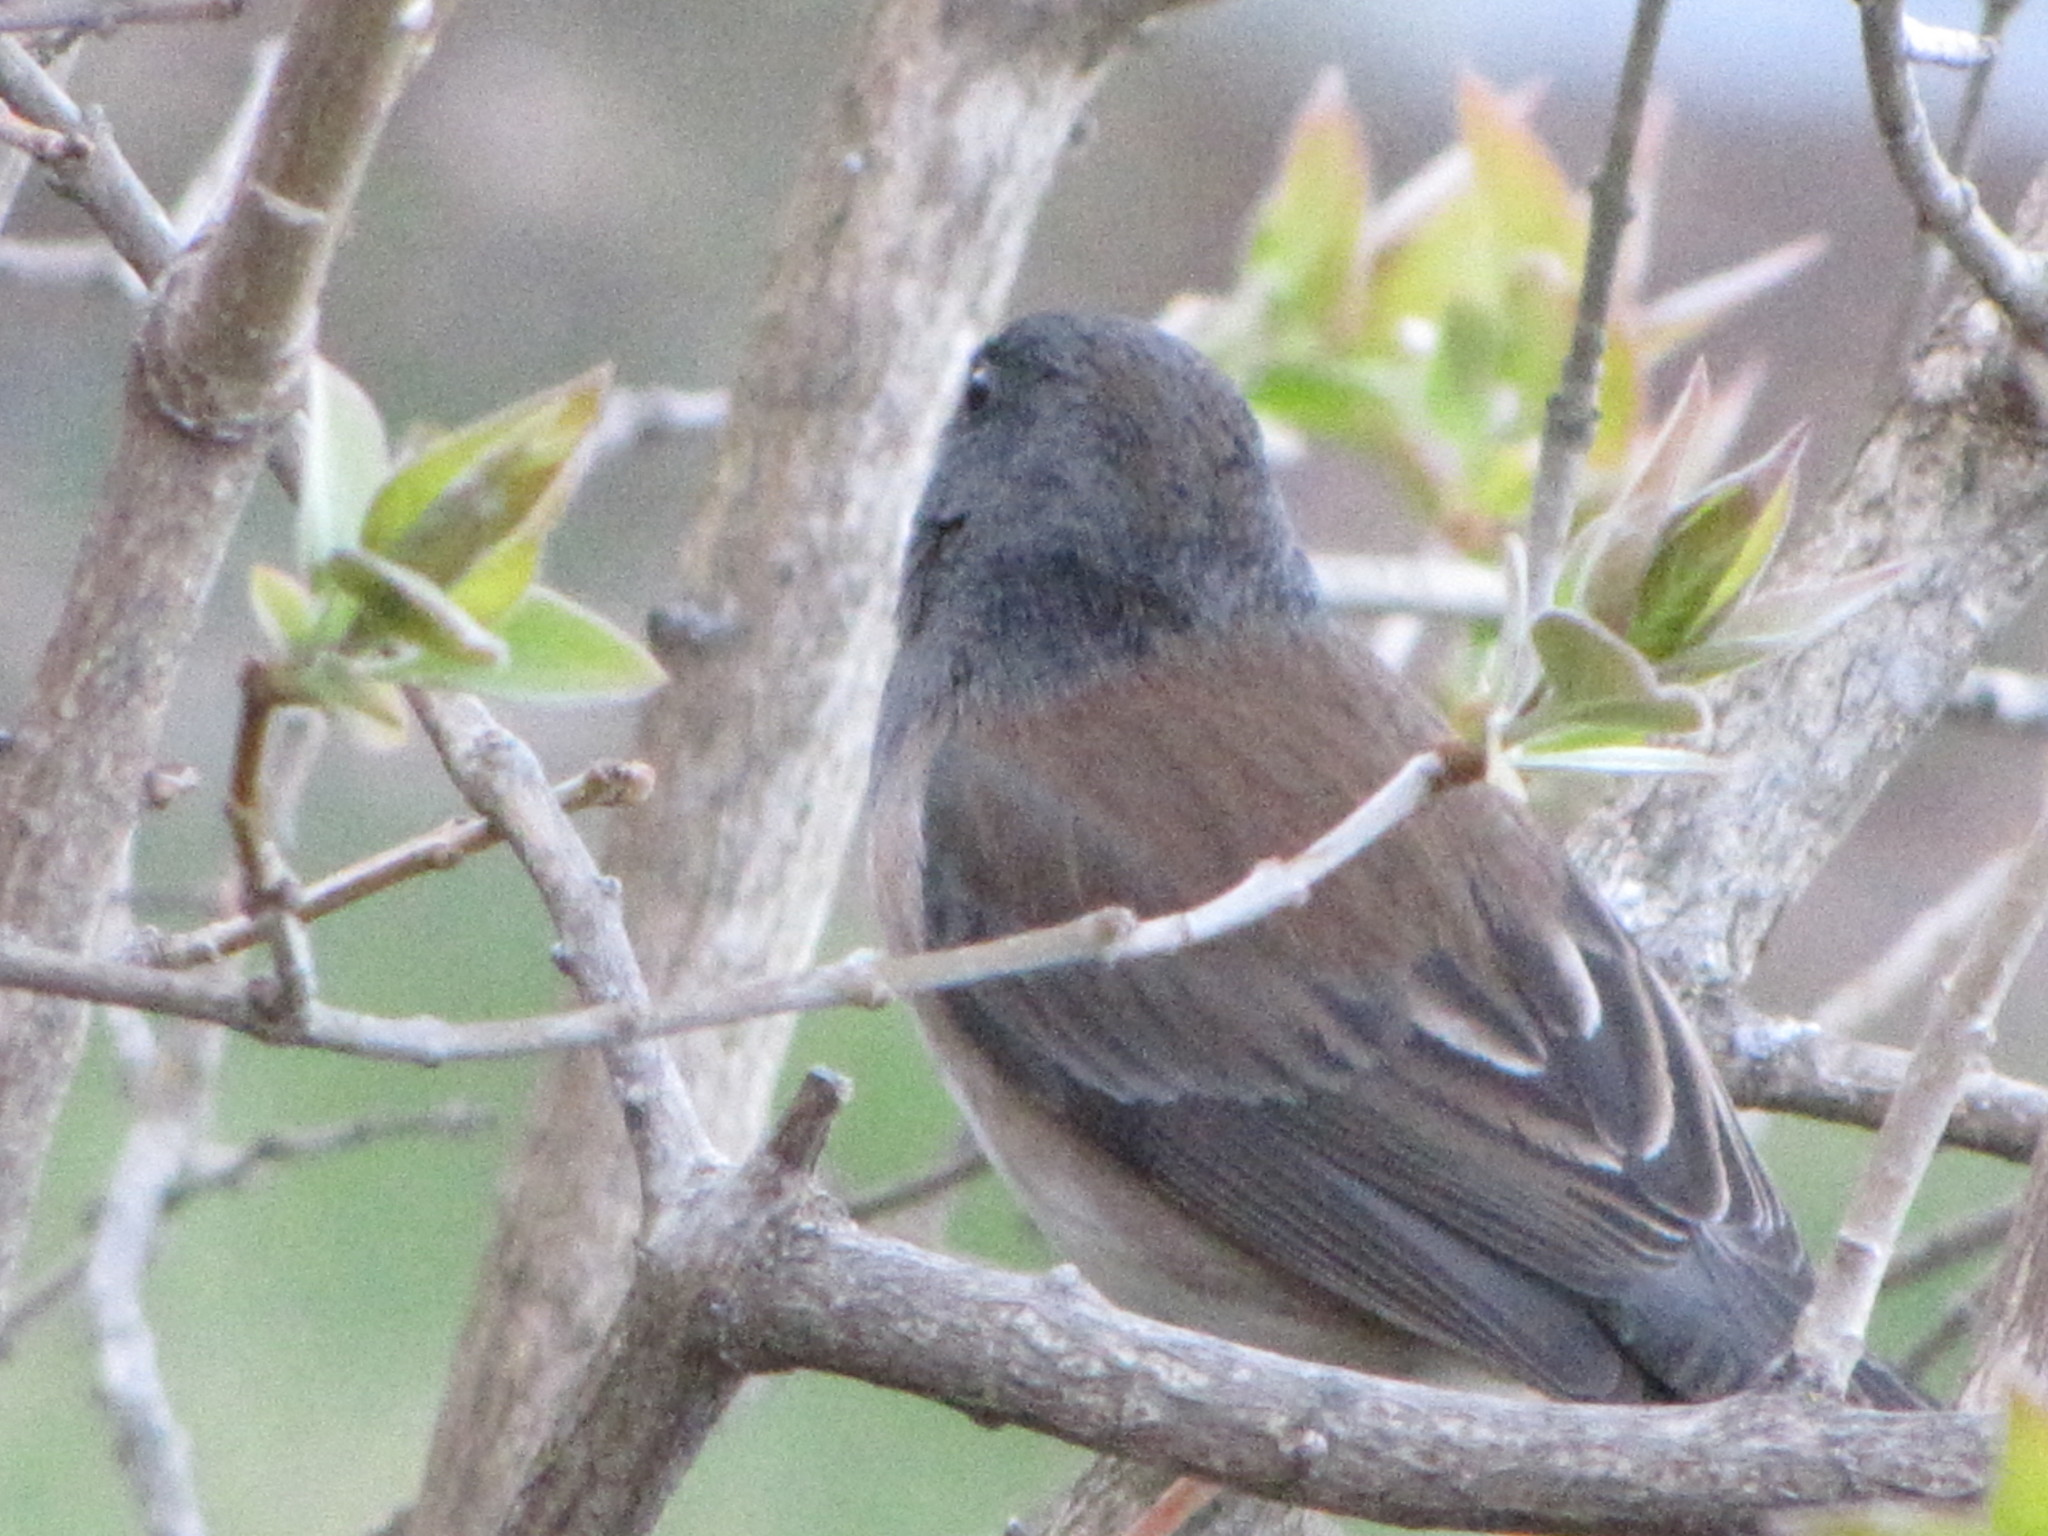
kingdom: Animalia
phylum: Chordata
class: Aves
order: Passeriformes
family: Passerellidae
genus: Junco
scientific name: Junco hyemalis
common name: Dark-eyed junco
